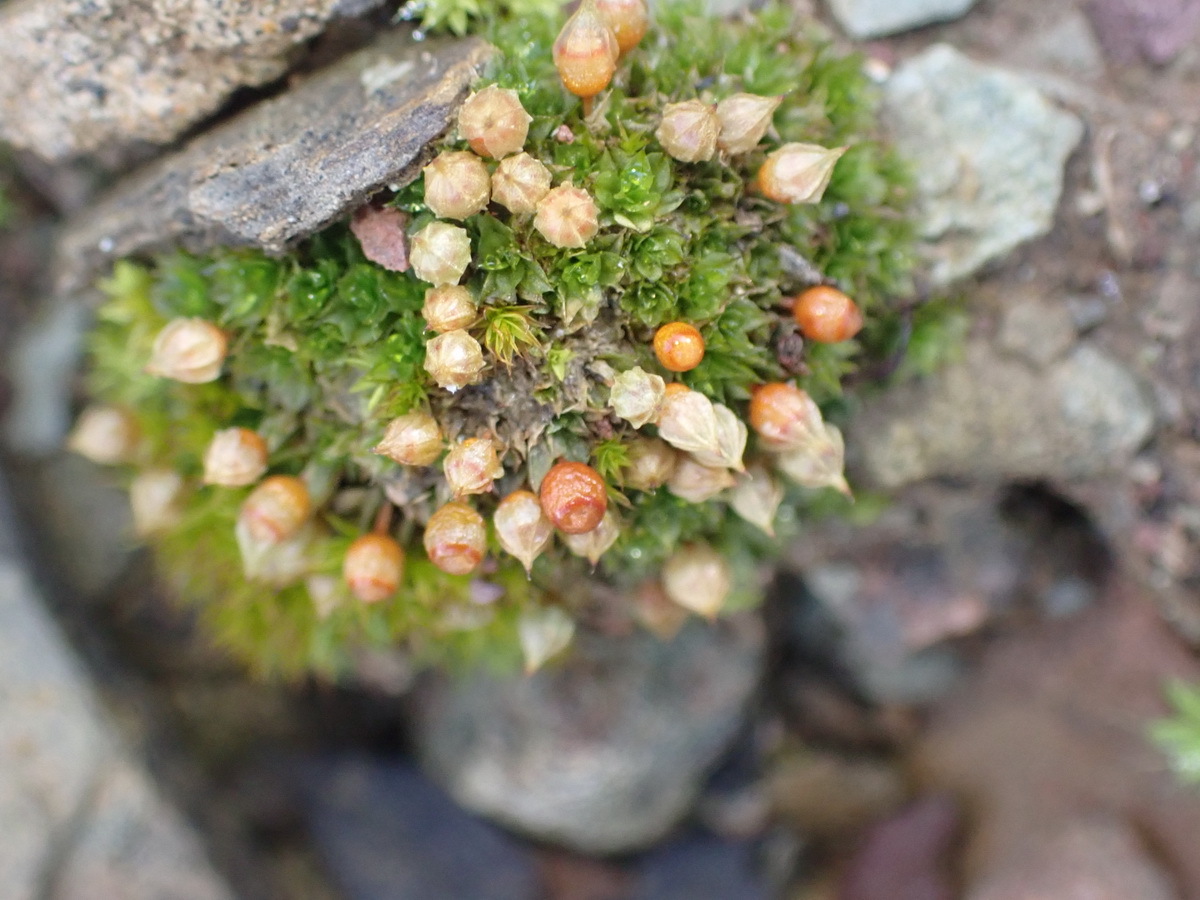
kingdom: Plantae
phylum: Bryophyta
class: Bryopsida
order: Funariales
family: Funariaceae
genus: Goniomitrium
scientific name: Goniomitrium acuminatum
